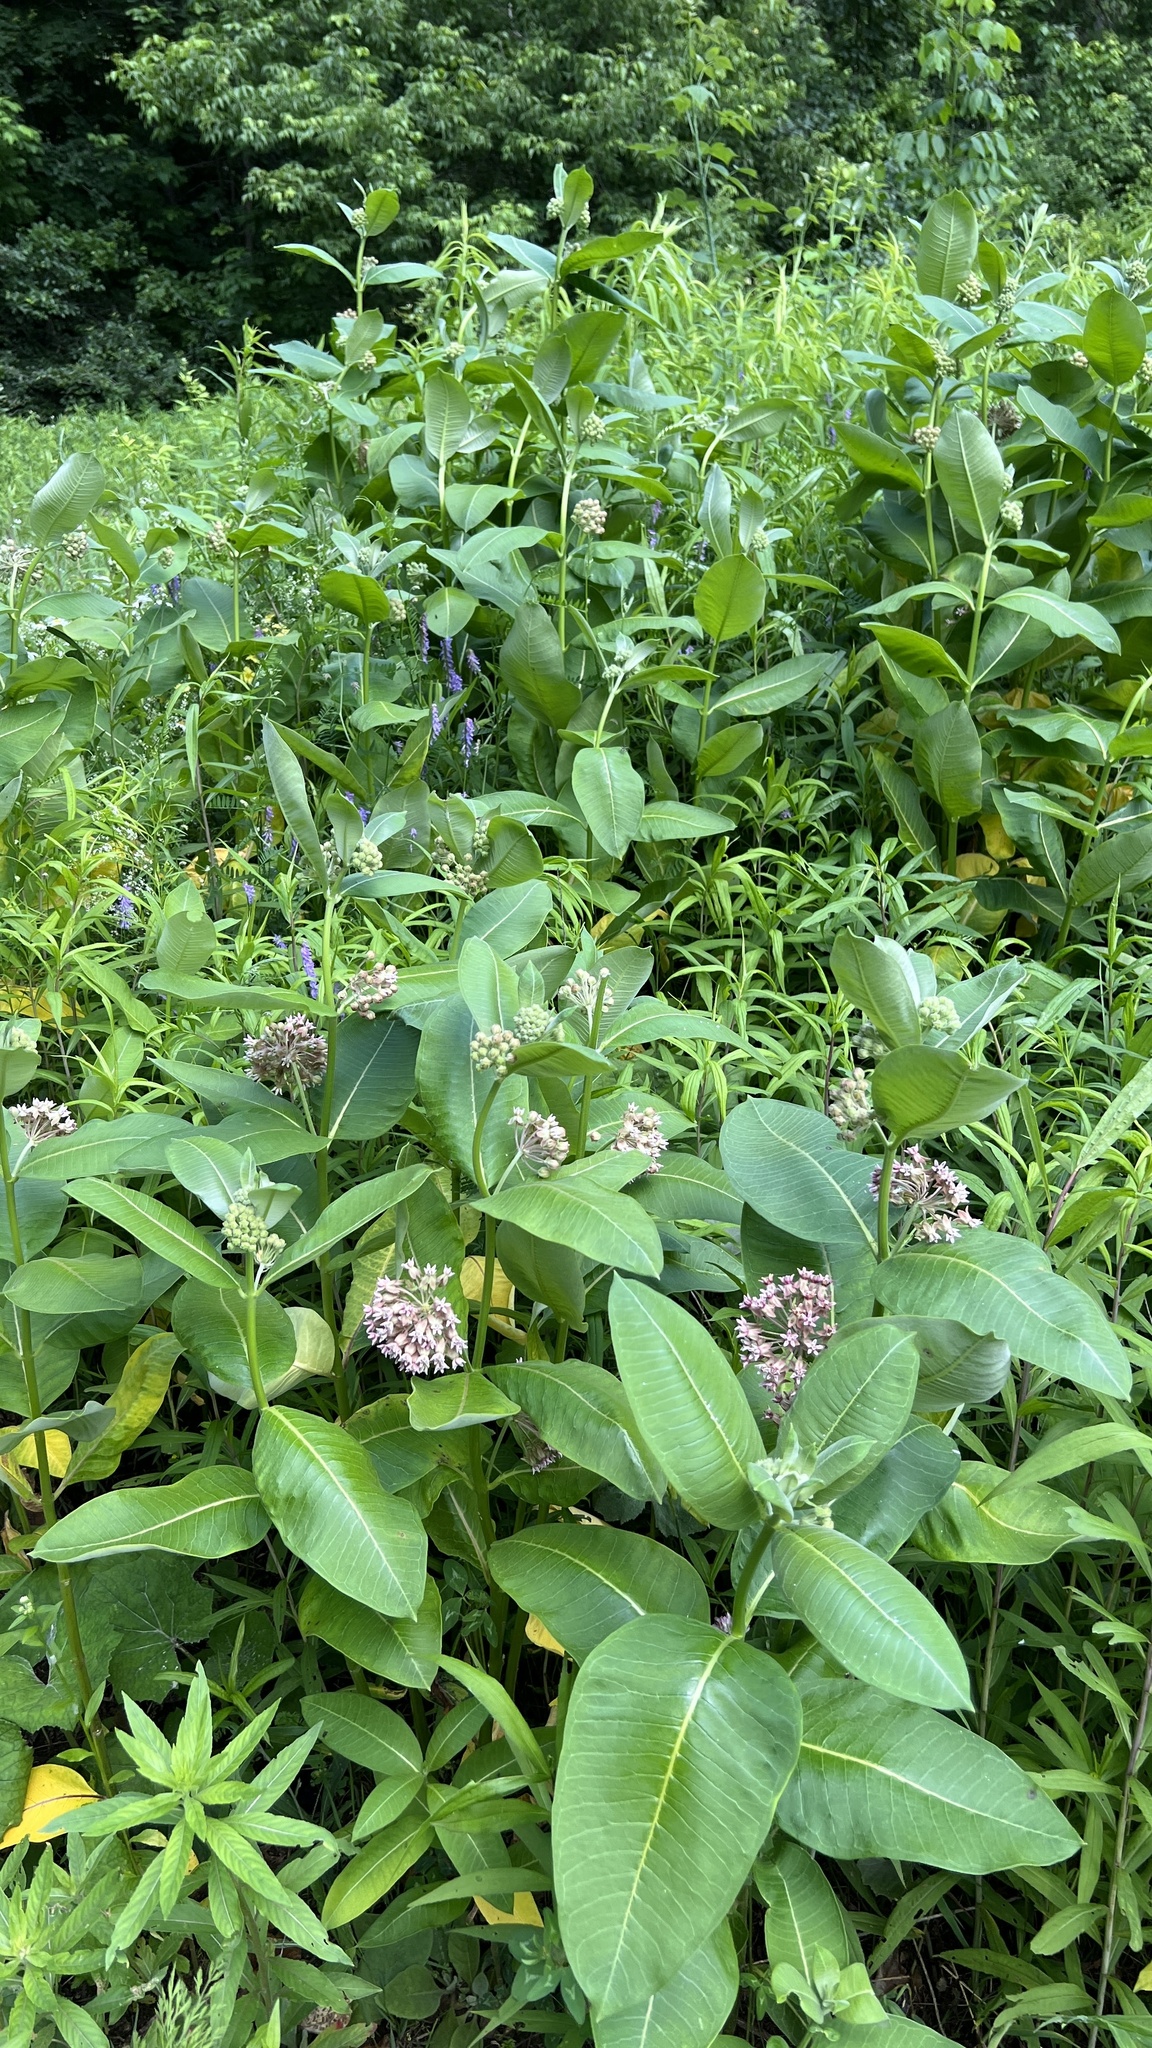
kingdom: Plantae
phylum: Tracheophyta
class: Magnoliopsida
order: Gentianales
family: Apocynaceae
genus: Asclepias
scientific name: Asclepias syriaca
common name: Common milkweed
